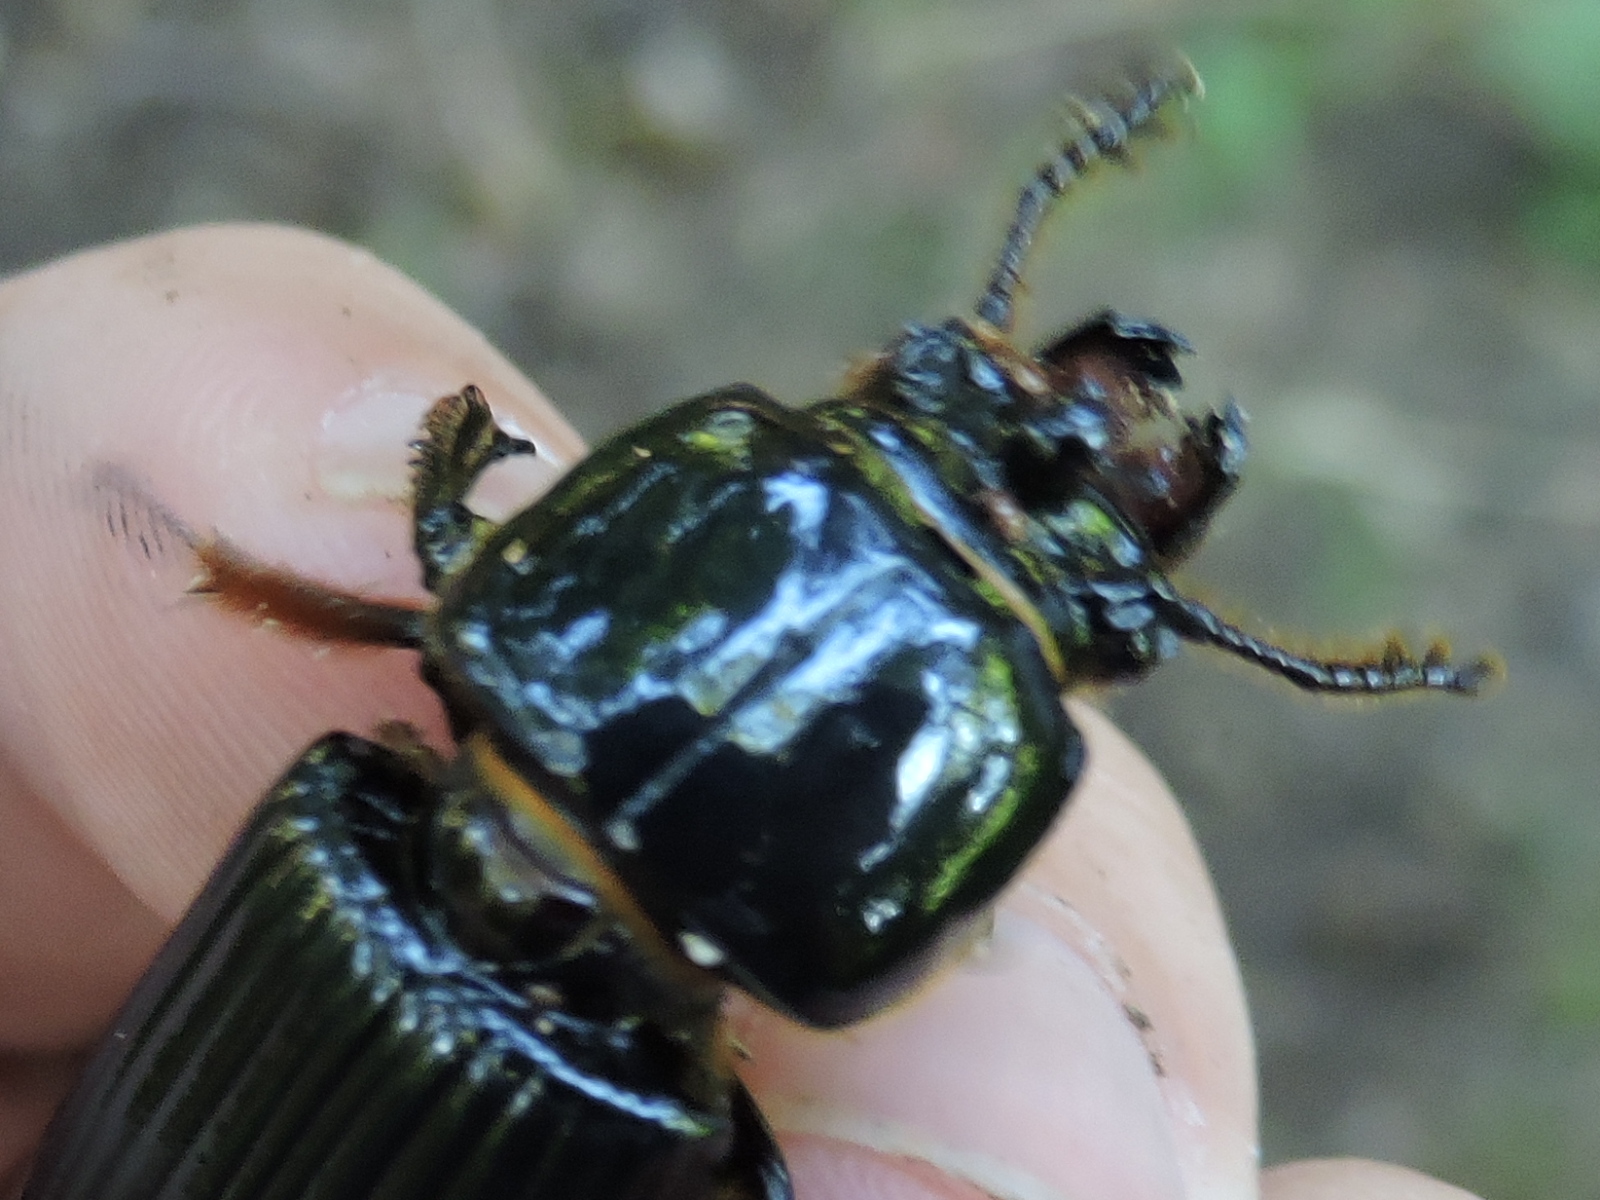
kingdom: Animalia
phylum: Arthropoda
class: Insecta
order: Coleoptera
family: Passalidae
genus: Odontotaenius
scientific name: Odontotaenius disjunctus
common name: Patent leather beetle
